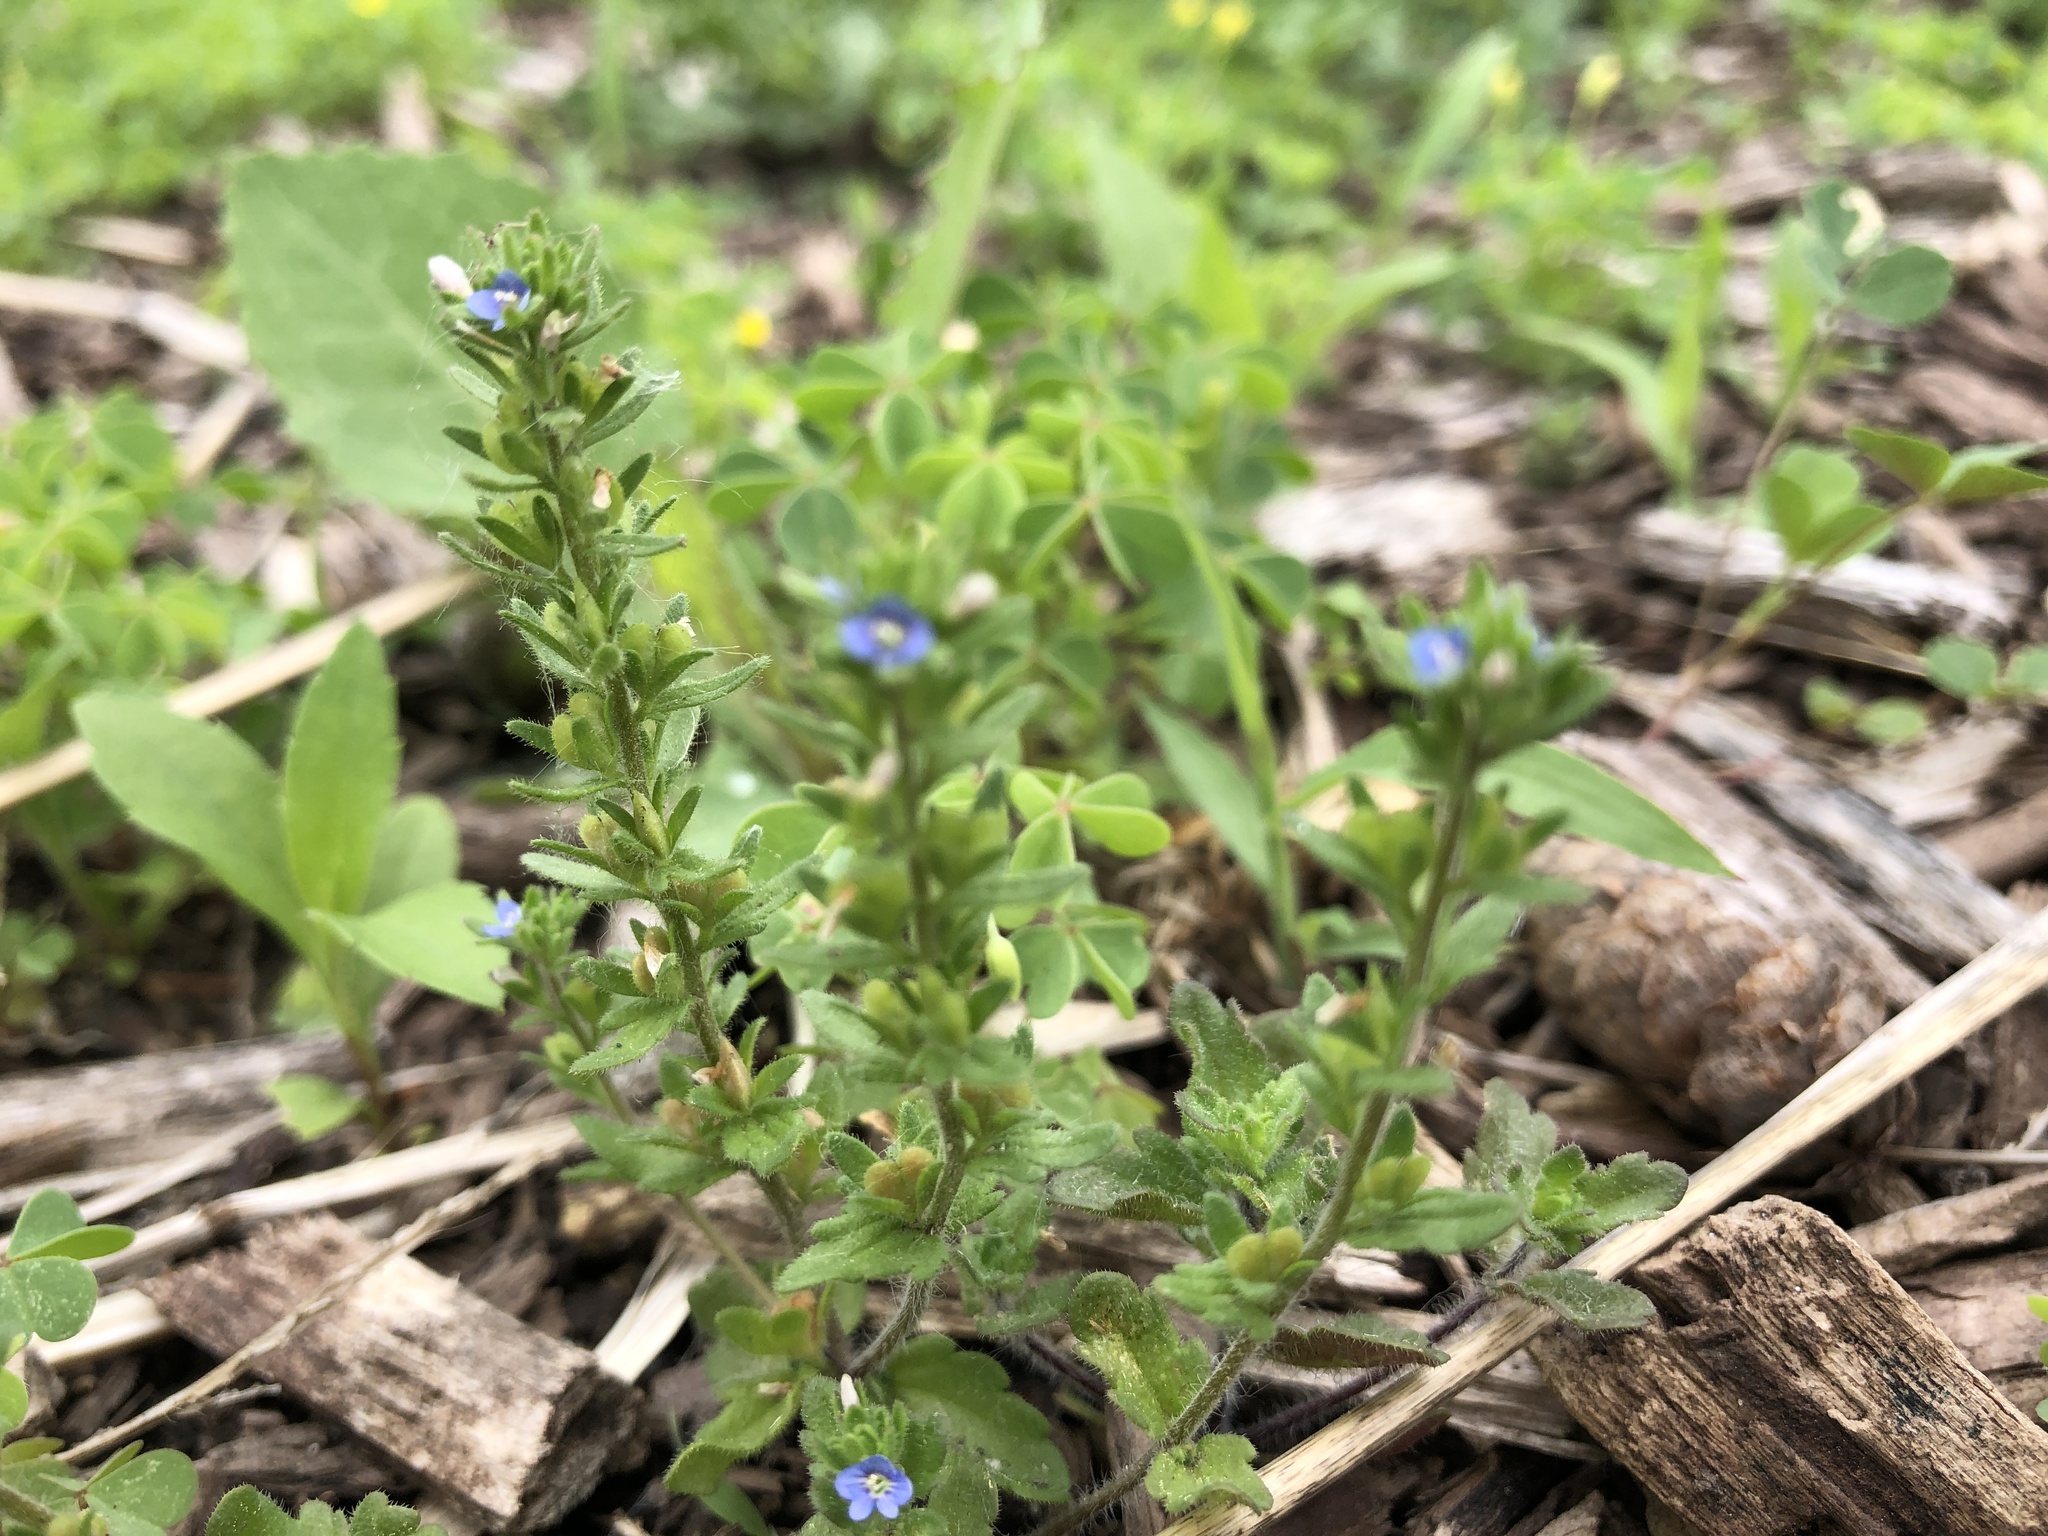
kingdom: Plantae
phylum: Tracheophyta
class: Magnoliopsida
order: Lamiales
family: Plantaginaceae
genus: Veronica
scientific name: Veronica arvensis
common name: Corn speedwell
